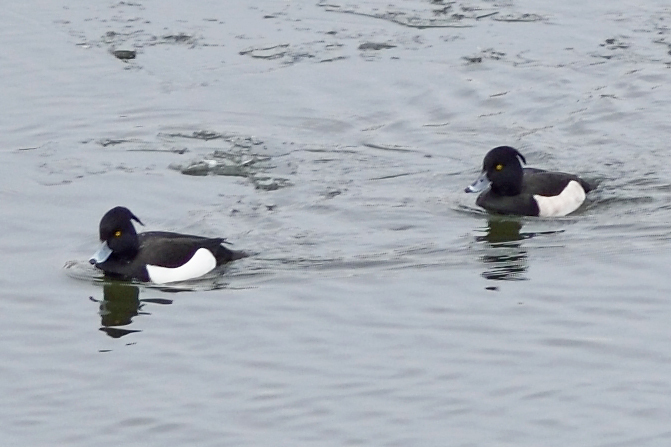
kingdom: Animalia
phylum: Chordata
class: Aves
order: Anseriformes
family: Anatidae
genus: Aythya
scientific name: Aythya fuligula
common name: Tufted duck
